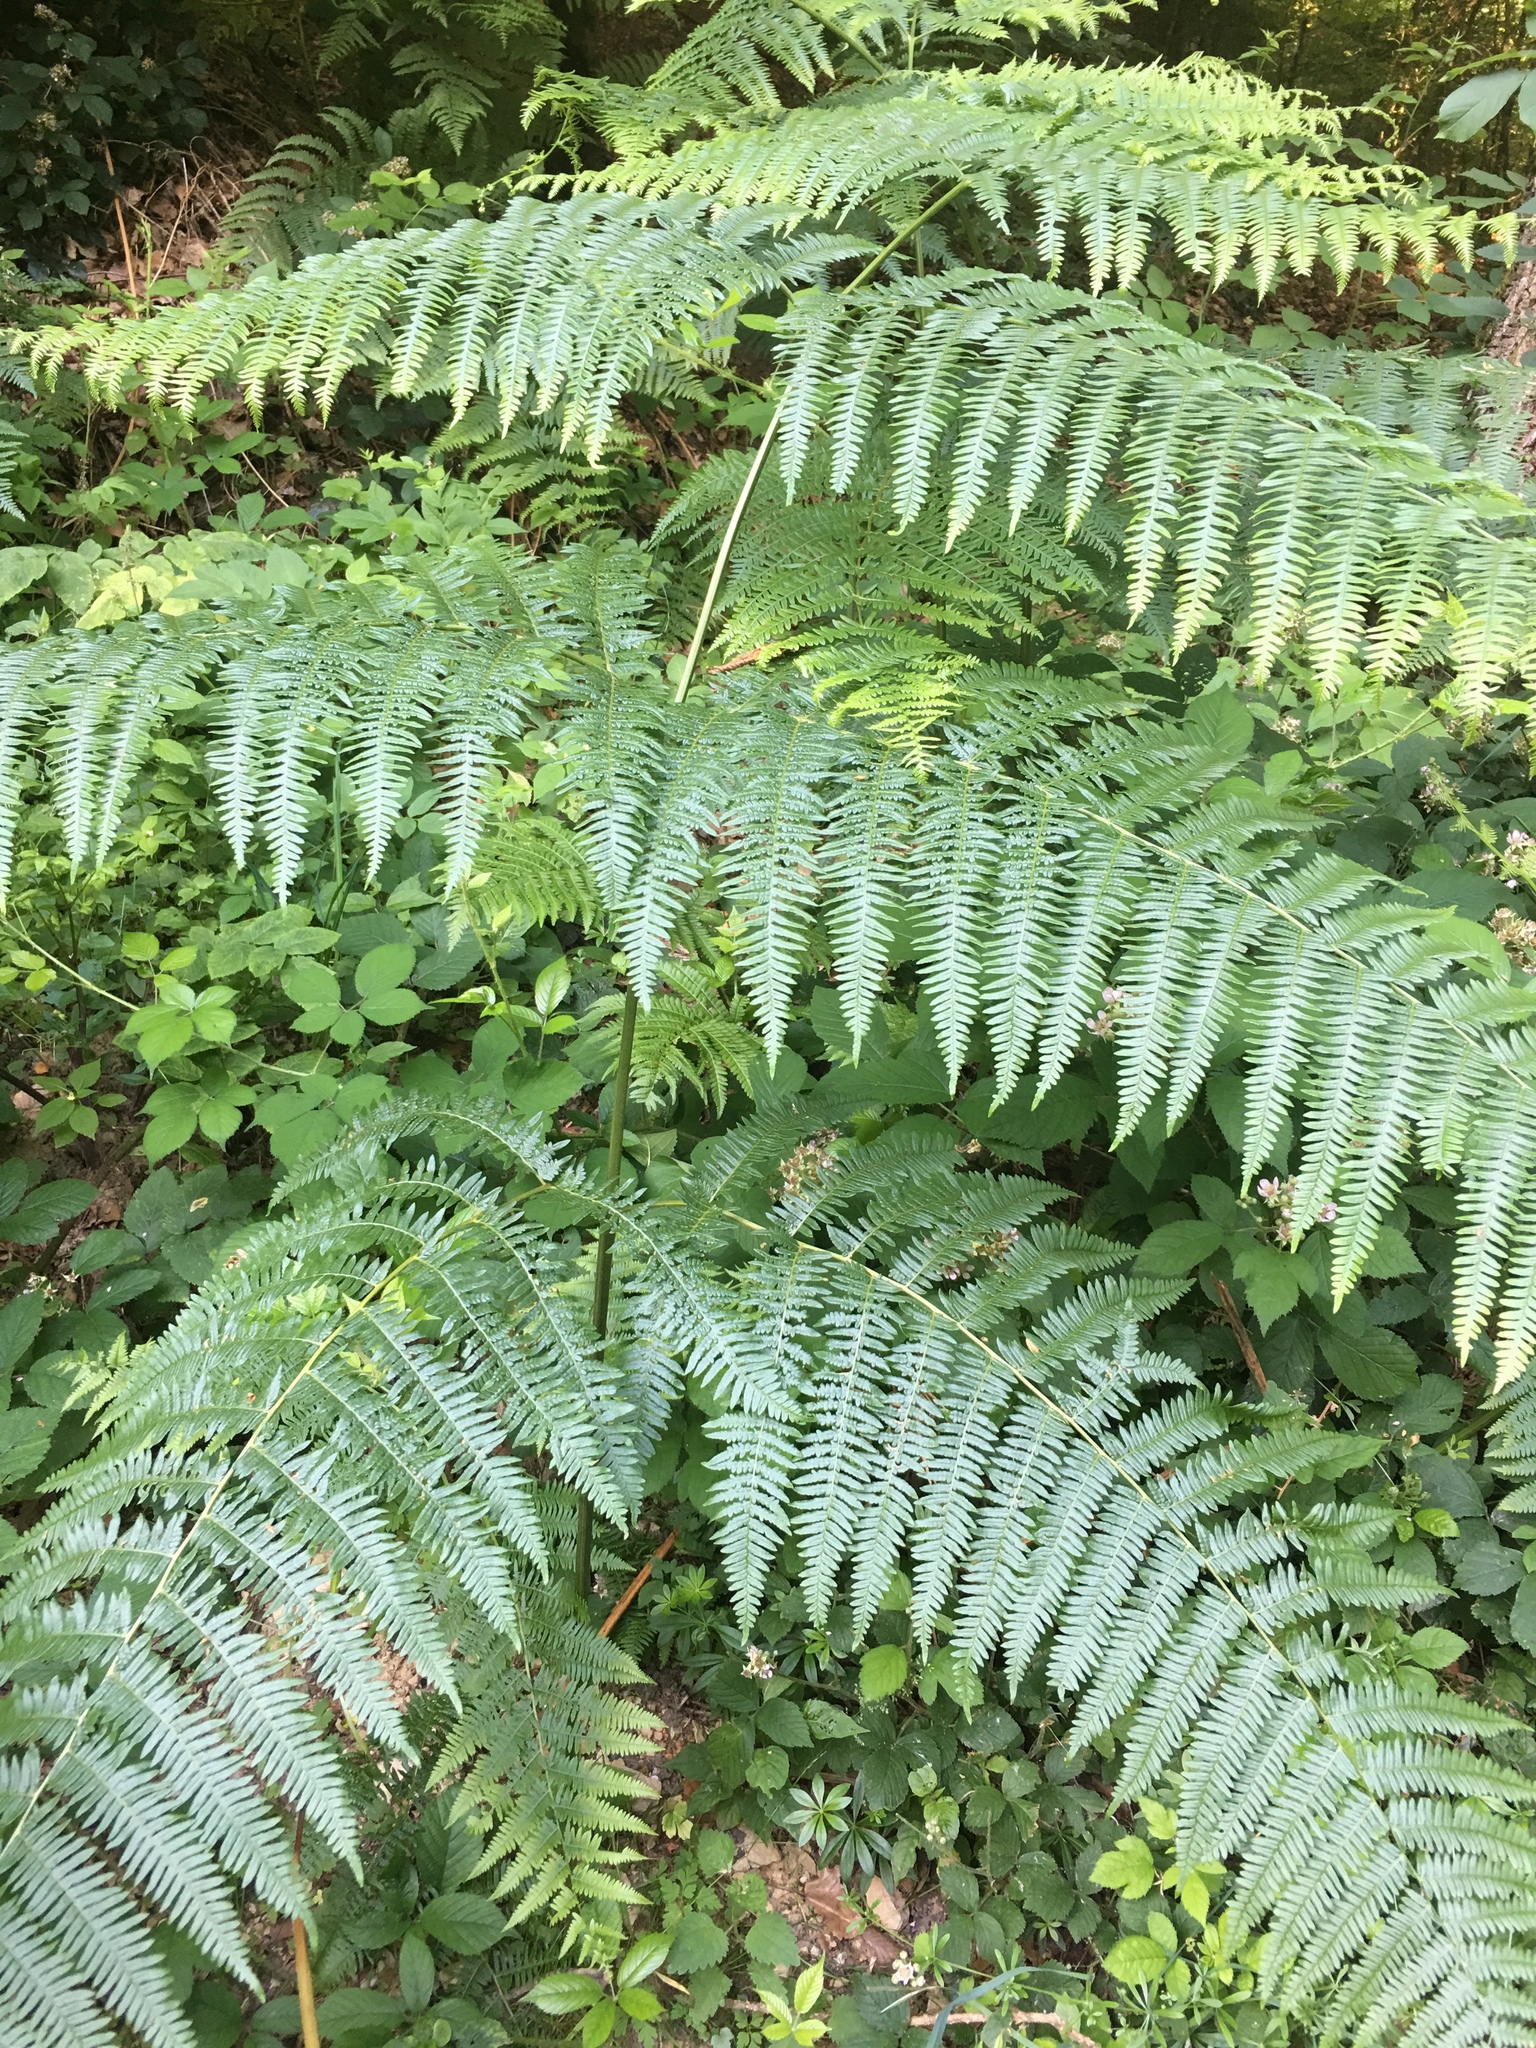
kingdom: Plantae
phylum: Tracheophyta
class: Polypodiopsida
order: Polypodiales
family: Dennstaedtiaceae
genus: Pteridium
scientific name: Pteridium aquilinum
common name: Bracken
